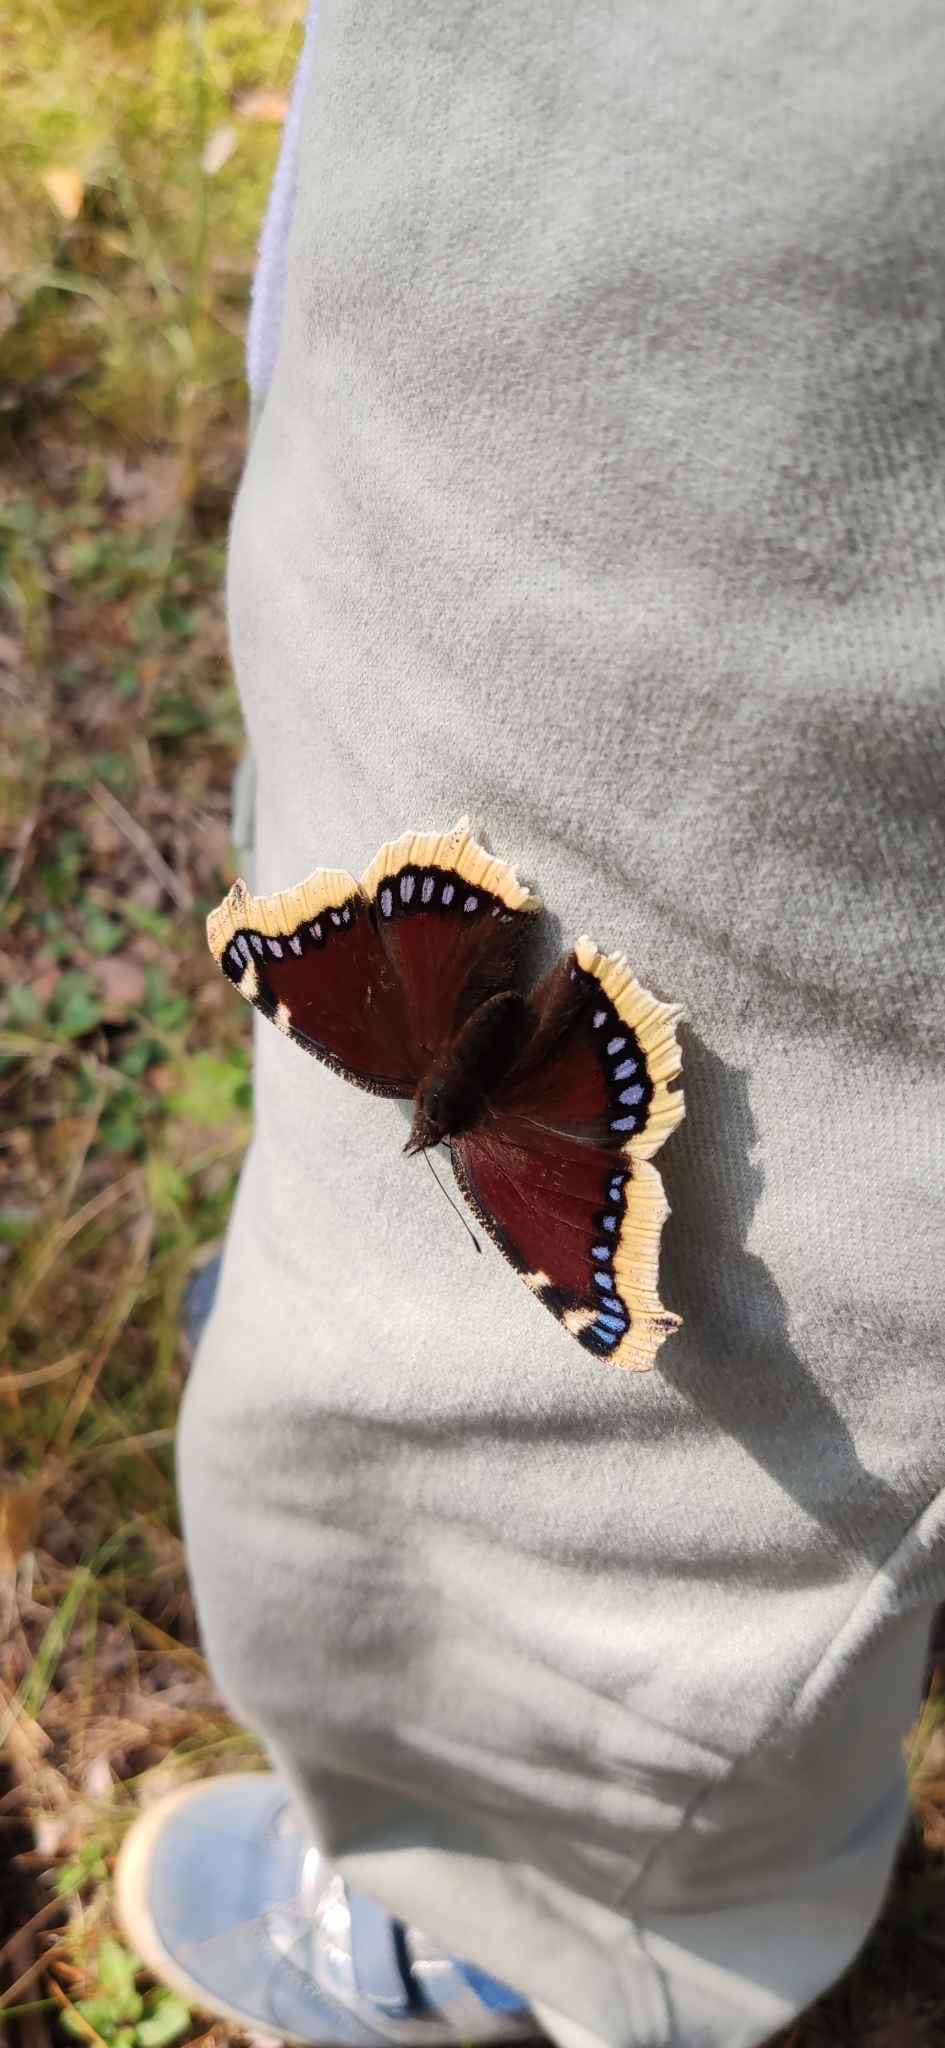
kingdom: Animalia
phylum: Arthropoda
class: Insecta
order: Lepidoptera
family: Nymphalidae
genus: Nymphalis
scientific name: Nymphalis antiopa
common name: Camberwell beauty
